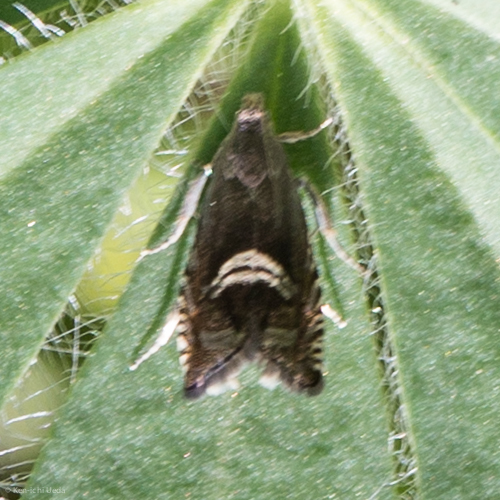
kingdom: Animalia
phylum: Arthropoda
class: Insecta
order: Lepidoptera
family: Tortricidae
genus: Grapholita
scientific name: Grapholita edwardsiana
